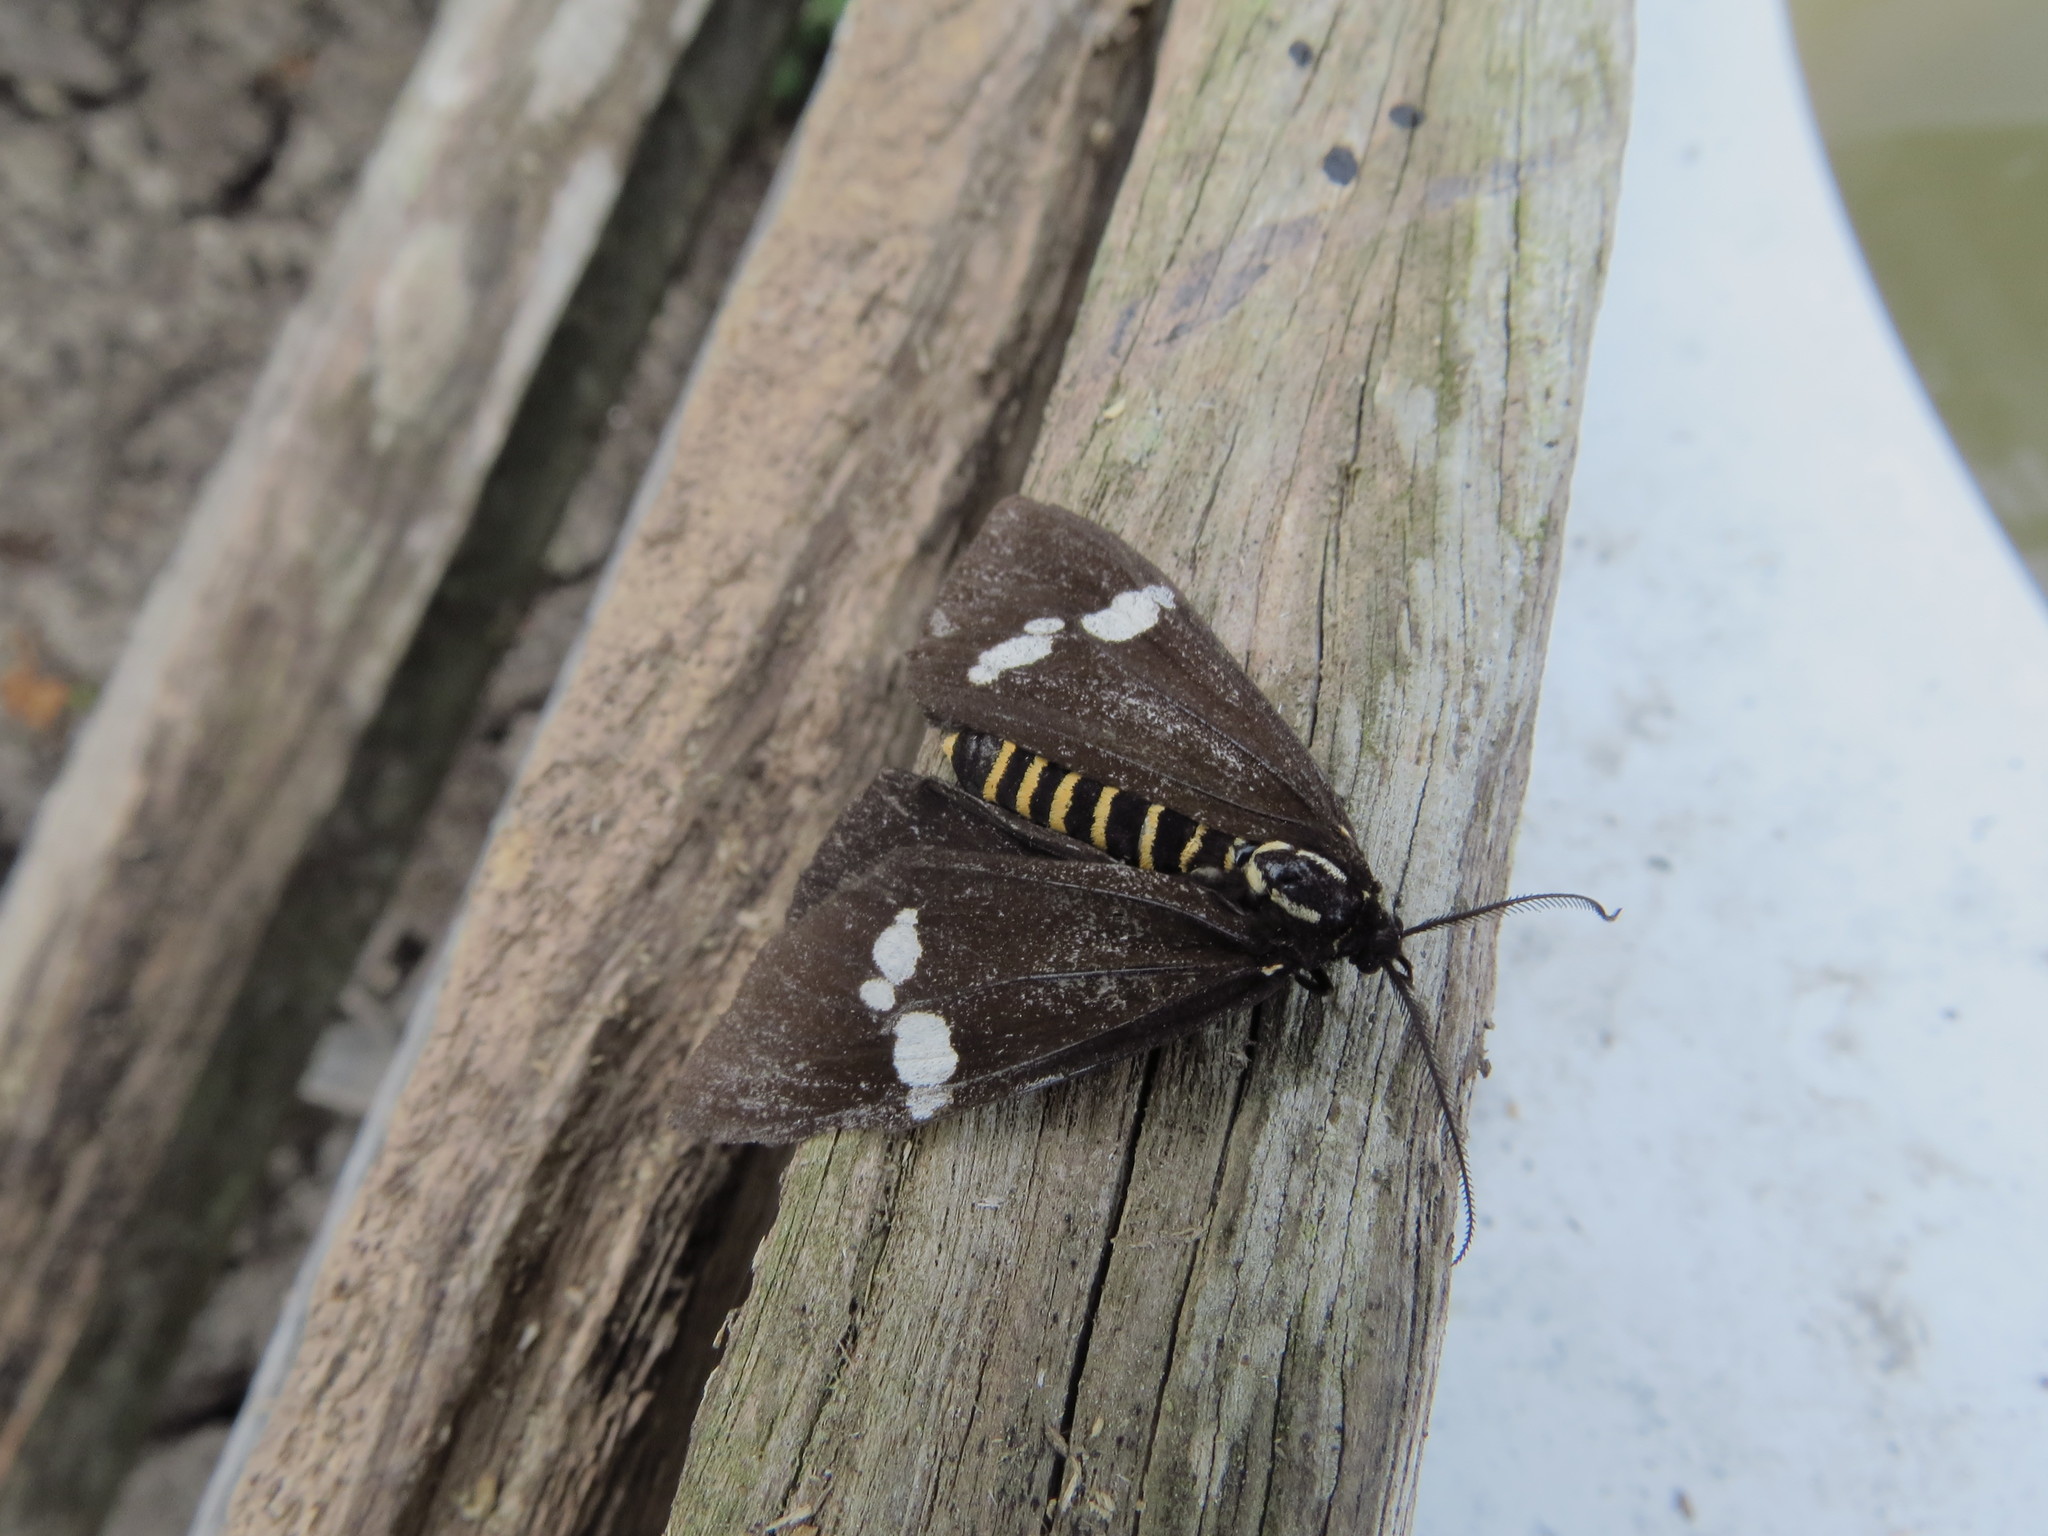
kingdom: Animalia
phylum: Arthropoda
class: Insecta
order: Lepidoptera
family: Erebidae
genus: Nyctemera
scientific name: Nyctemera annulatum
